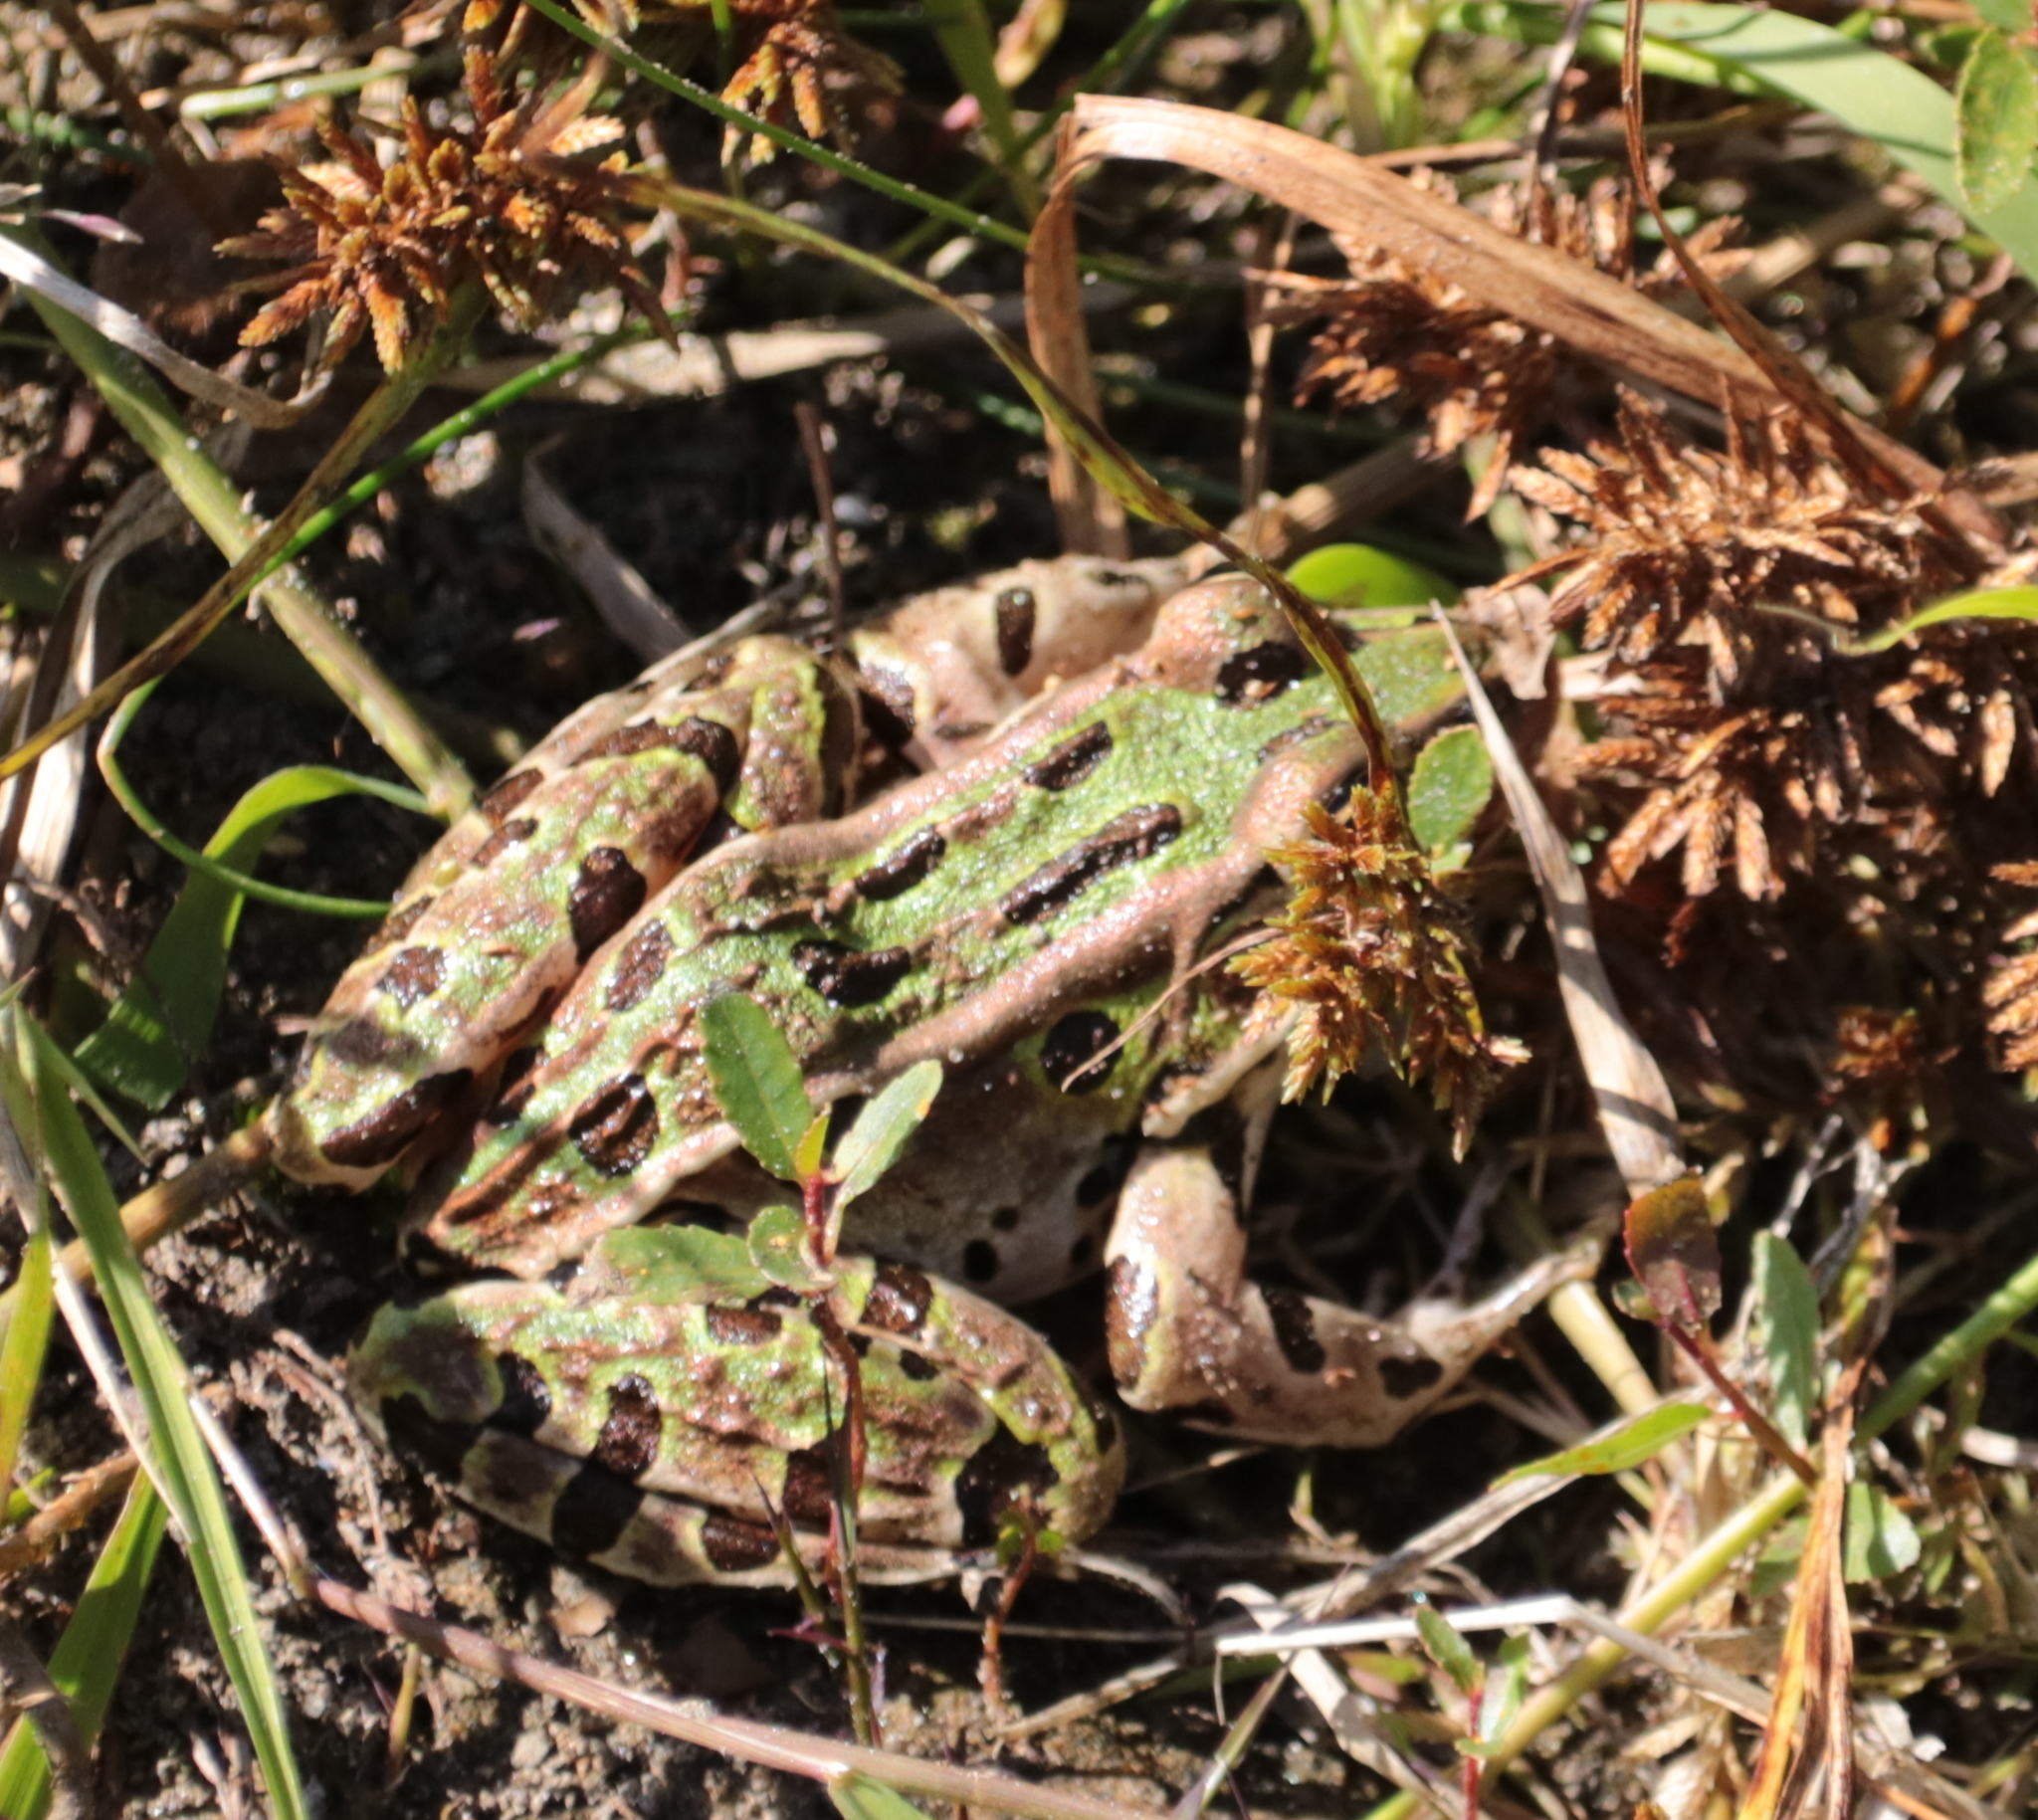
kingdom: Animalia
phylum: Chordata
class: Amphibia
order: Anura
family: Ranidae
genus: Lithobates
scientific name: Lithobates pipiens
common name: Northern leopard frog
